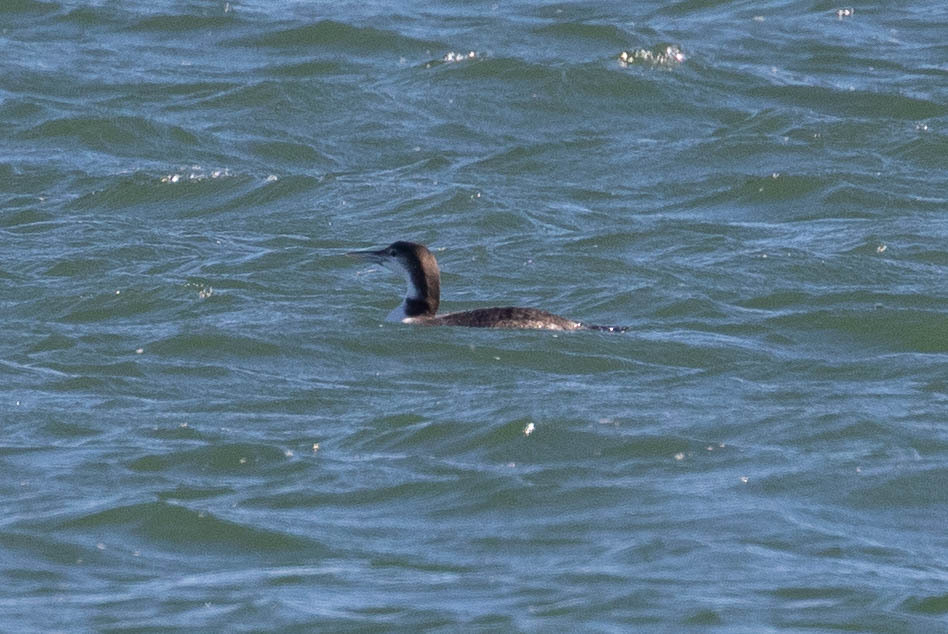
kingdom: Animalia
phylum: Chordata
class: Aves
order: Gaviiformes
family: Gaviidae
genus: Gavia
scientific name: Gavia immer
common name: Common loon
